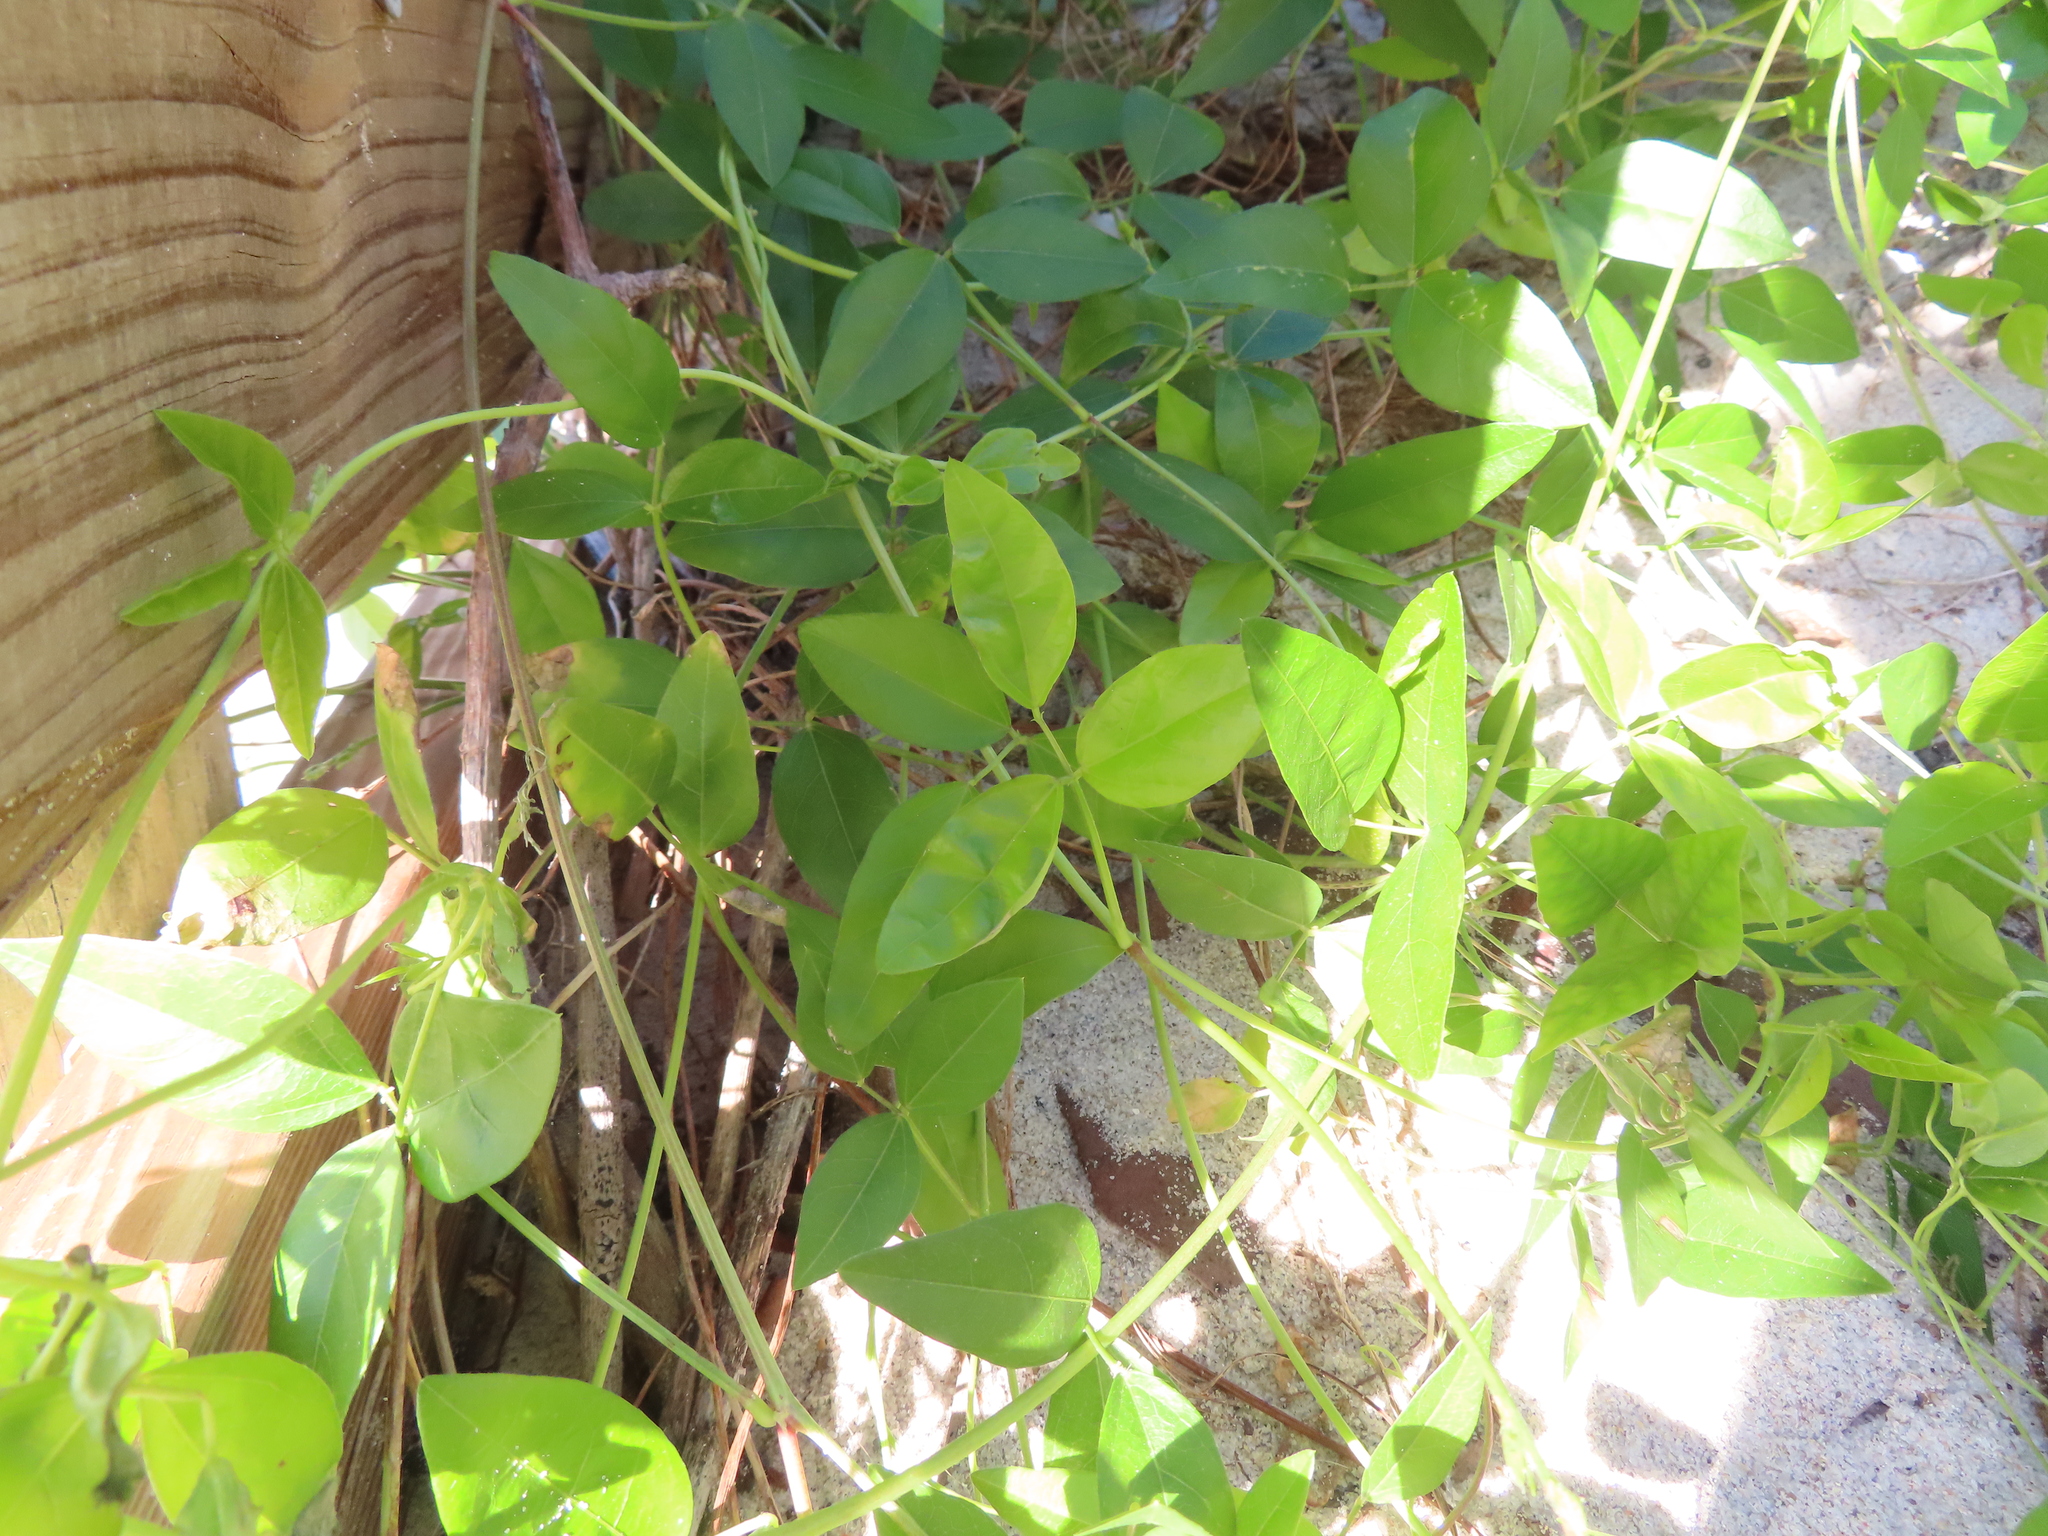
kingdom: Plantae
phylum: Tracheophyta
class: Magnoliopsida
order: Fabales
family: Fabaceae
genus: Vigna
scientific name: Vigna luteola
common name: Hairypod cowpea
